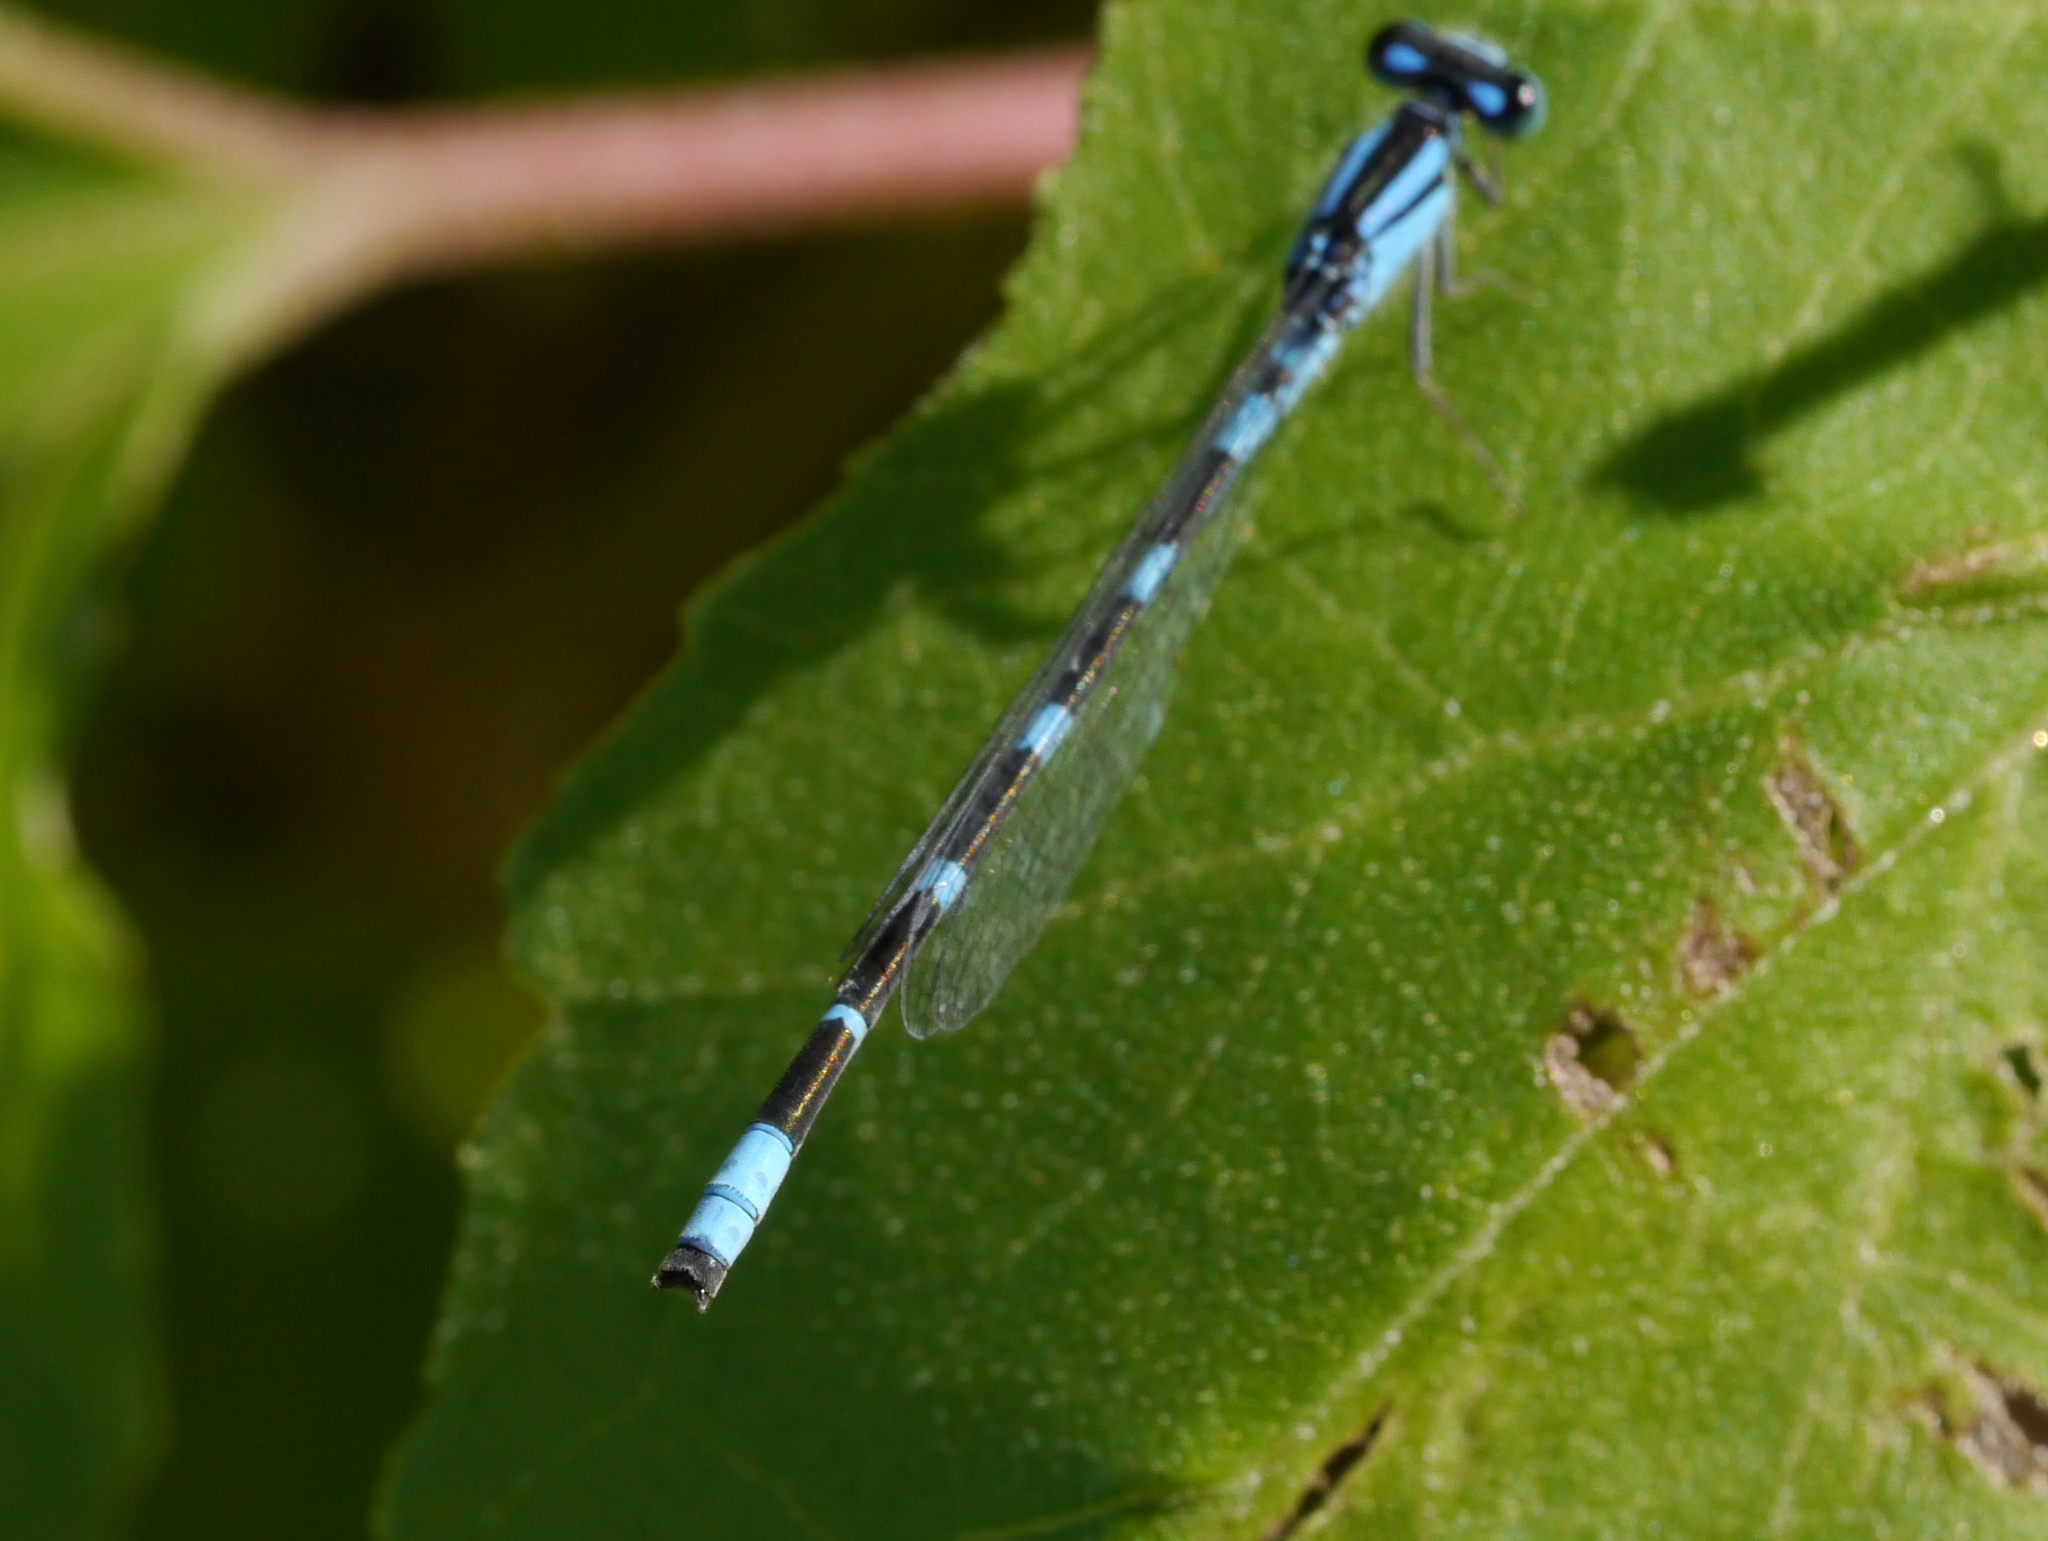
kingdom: Animalia
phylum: Arthropoda
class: Insecta
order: Odonata
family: Coenagrionidae
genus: Enallagma
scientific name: Enallagma carunculatum
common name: Tule bluet
